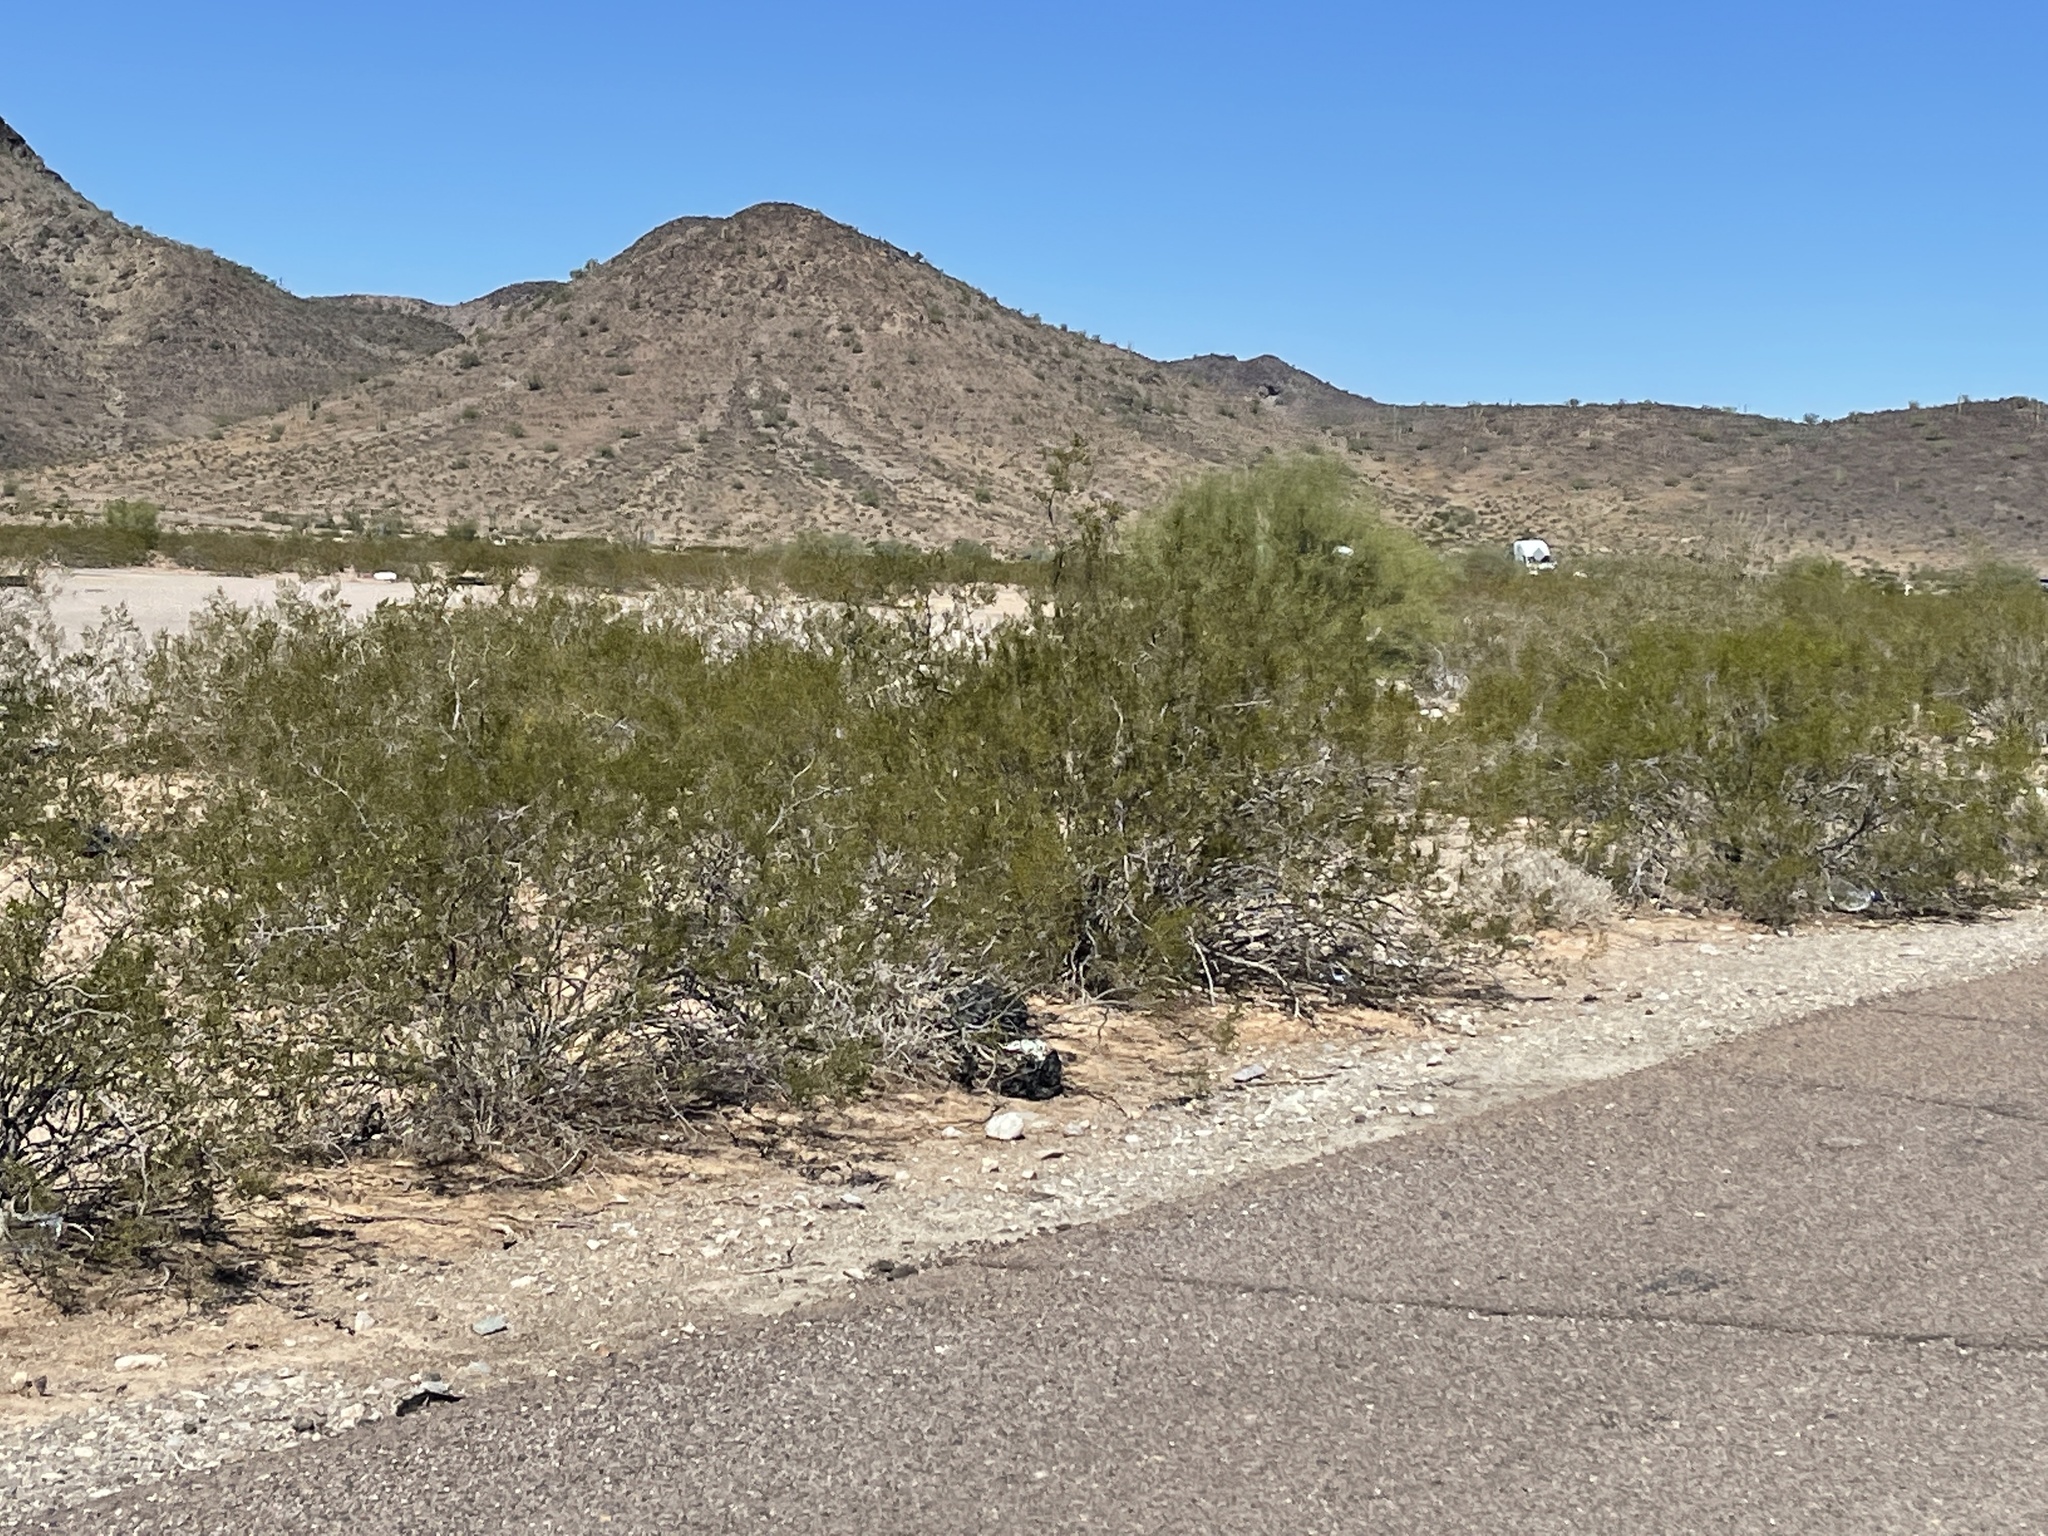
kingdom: Plantae
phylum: Tracheophyta
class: Magnoliopsida
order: Zygophyllales
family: Zygophyllaceae
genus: Larrea
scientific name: Larrea tridentata
